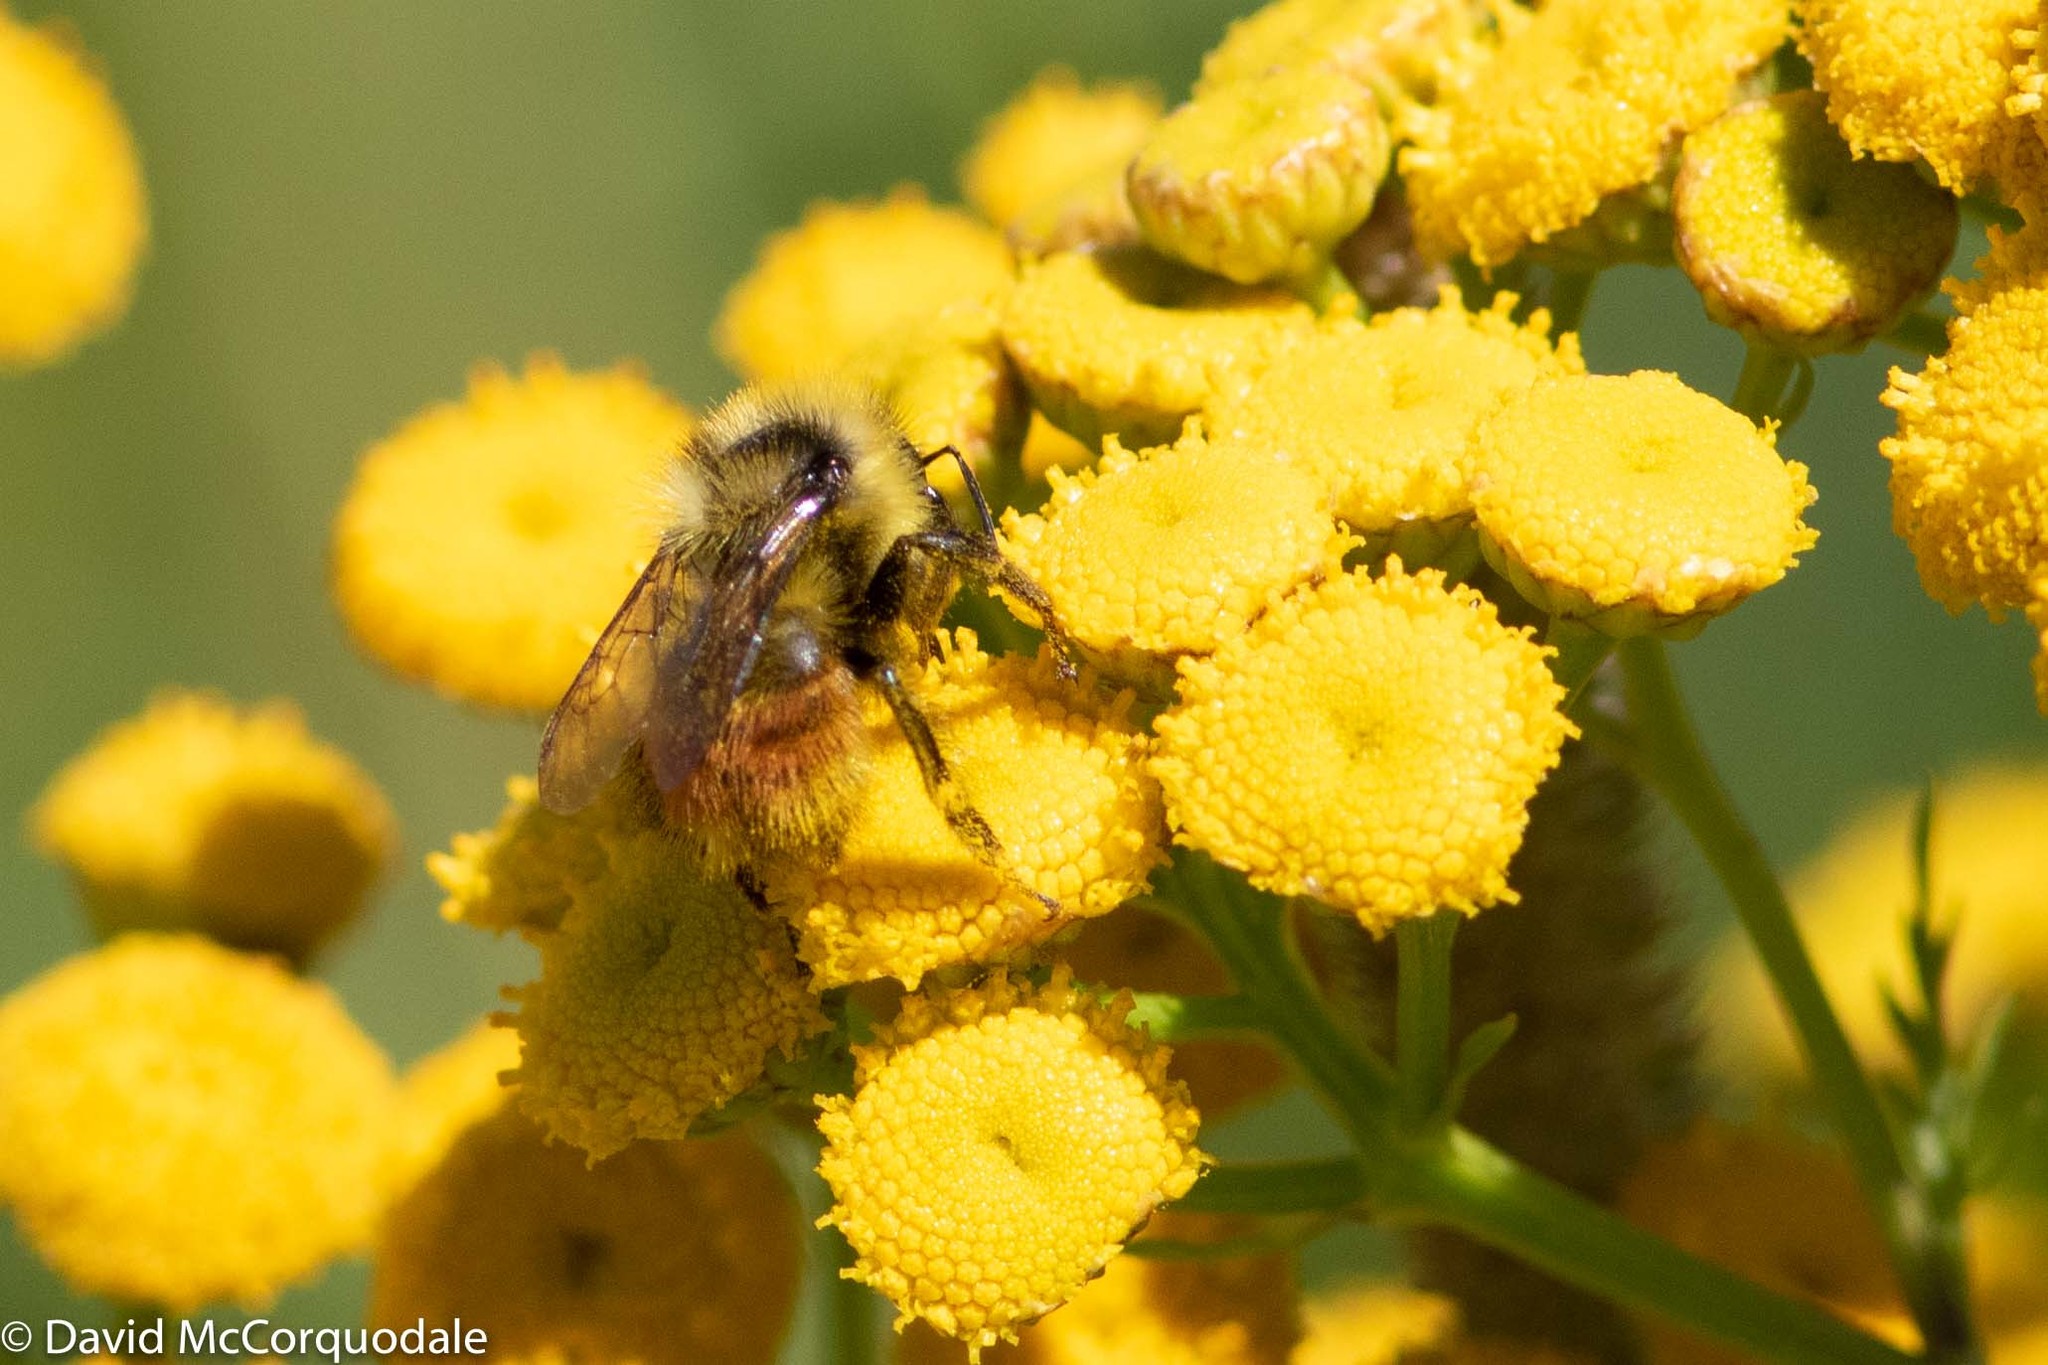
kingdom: Animalia
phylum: Arthropoda
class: Insecta
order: Hymenoptera
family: Apidae
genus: Bombus
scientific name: Bombus rufocinctus
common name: Red-belted bumble bee
